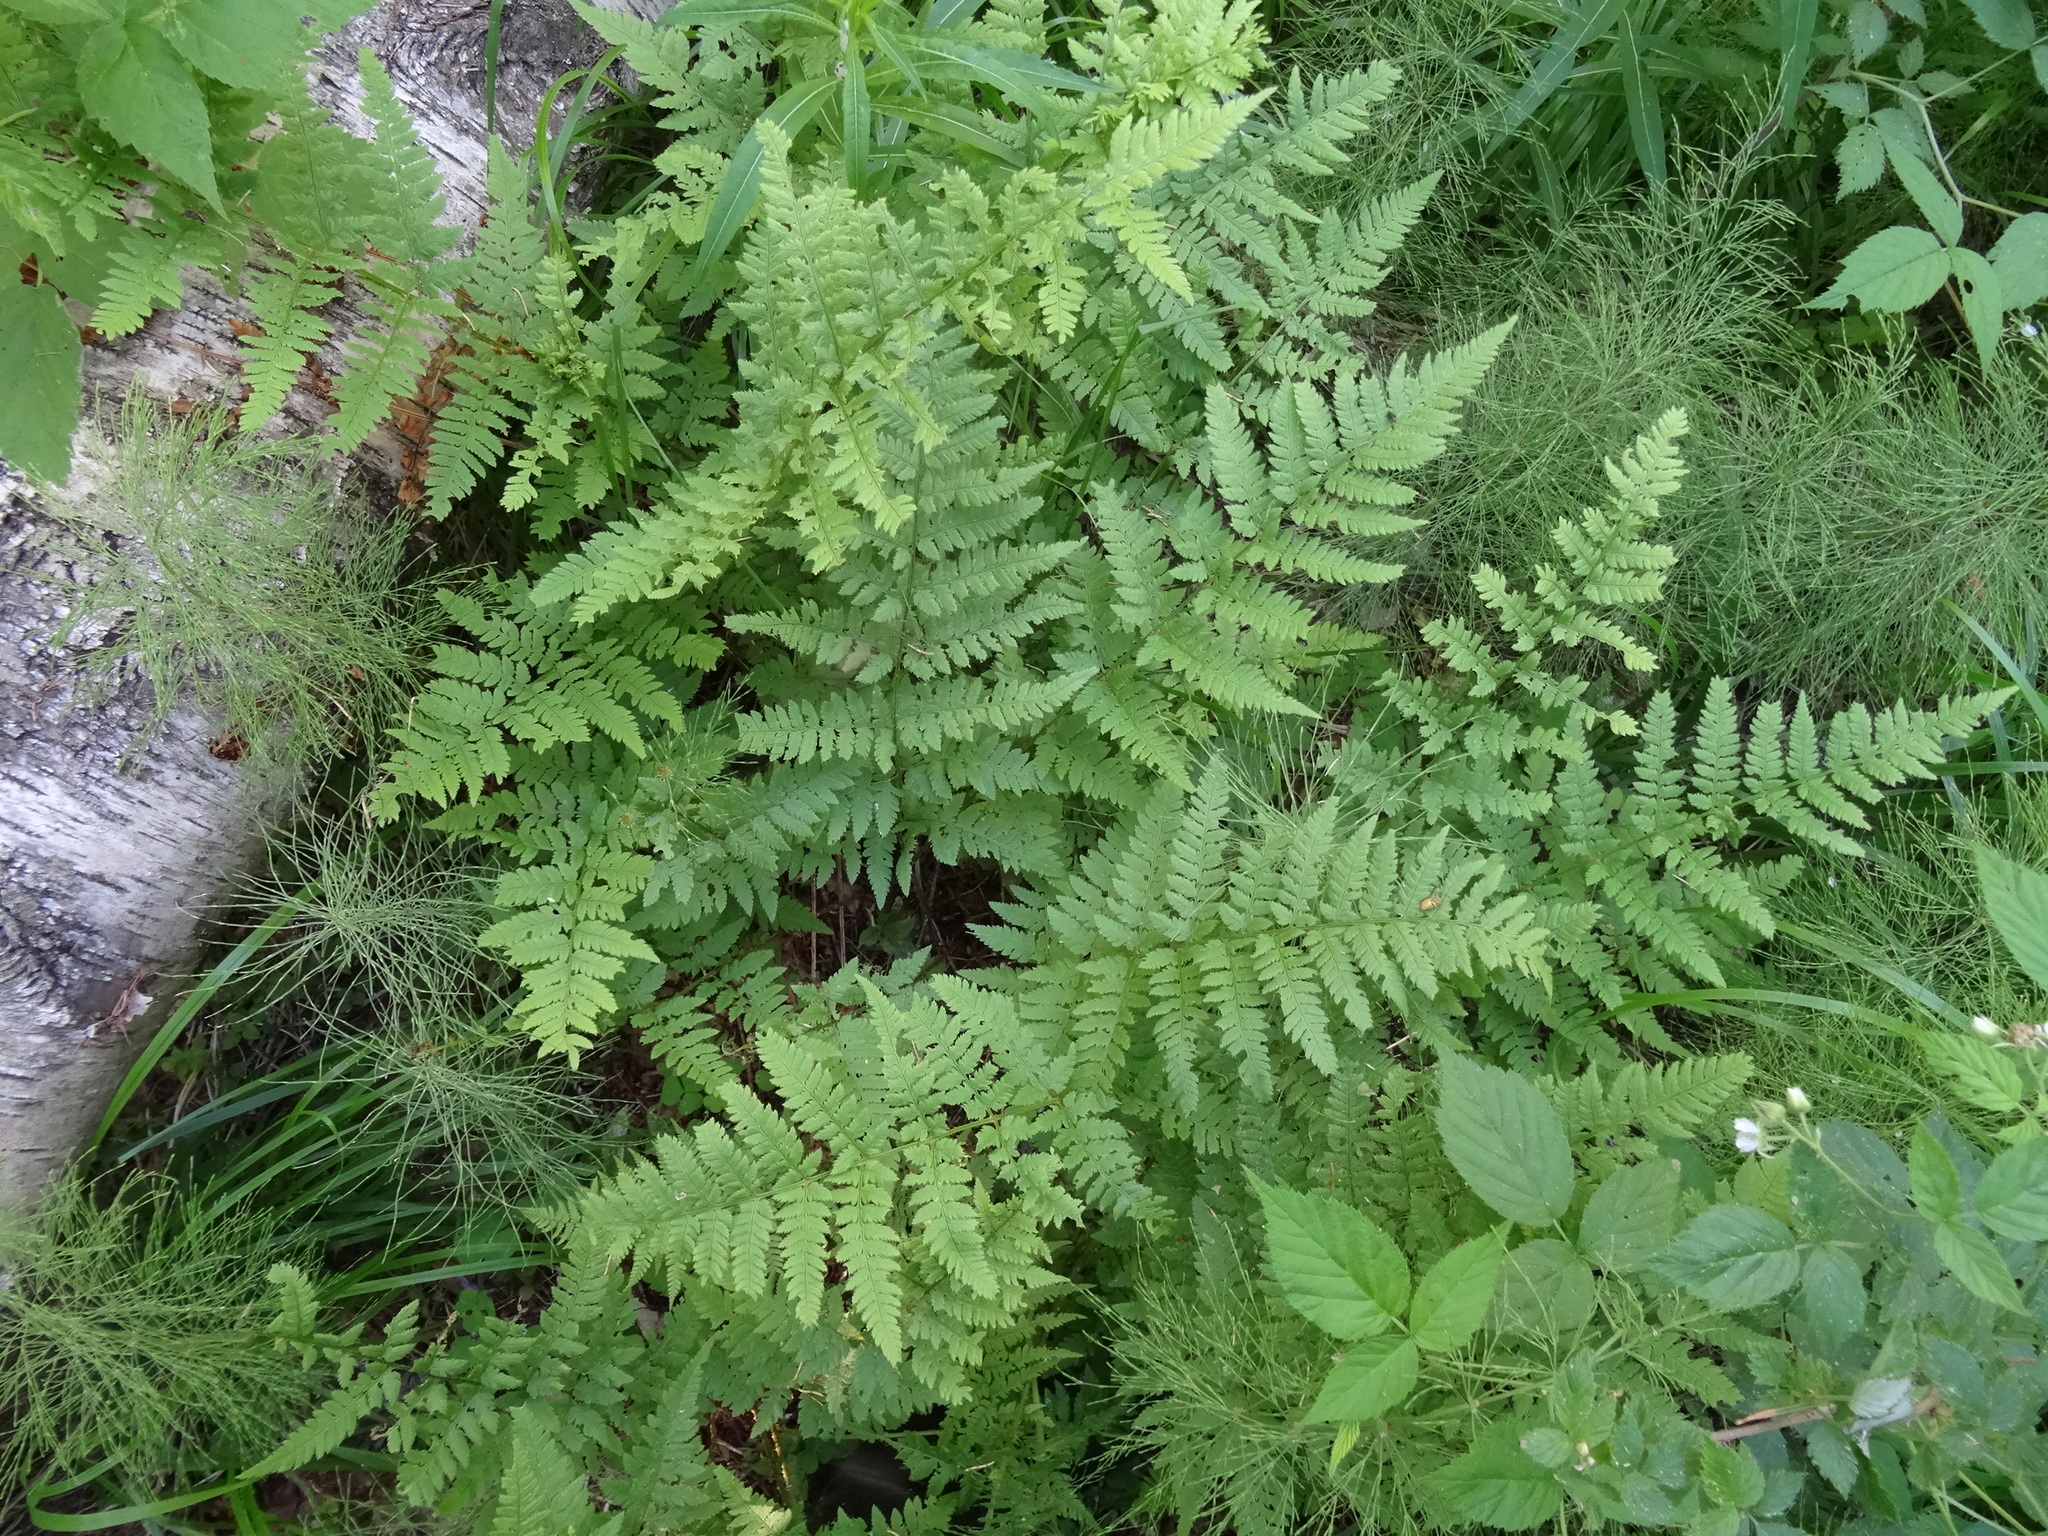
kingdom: Plantae
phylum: Tracheophyta
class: Polypodiopsida
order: Polypodiales
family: Dryopteridaceae
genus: Dryopteris
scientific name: Dryopteris carthusiana
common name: Narrow buckler-fern
